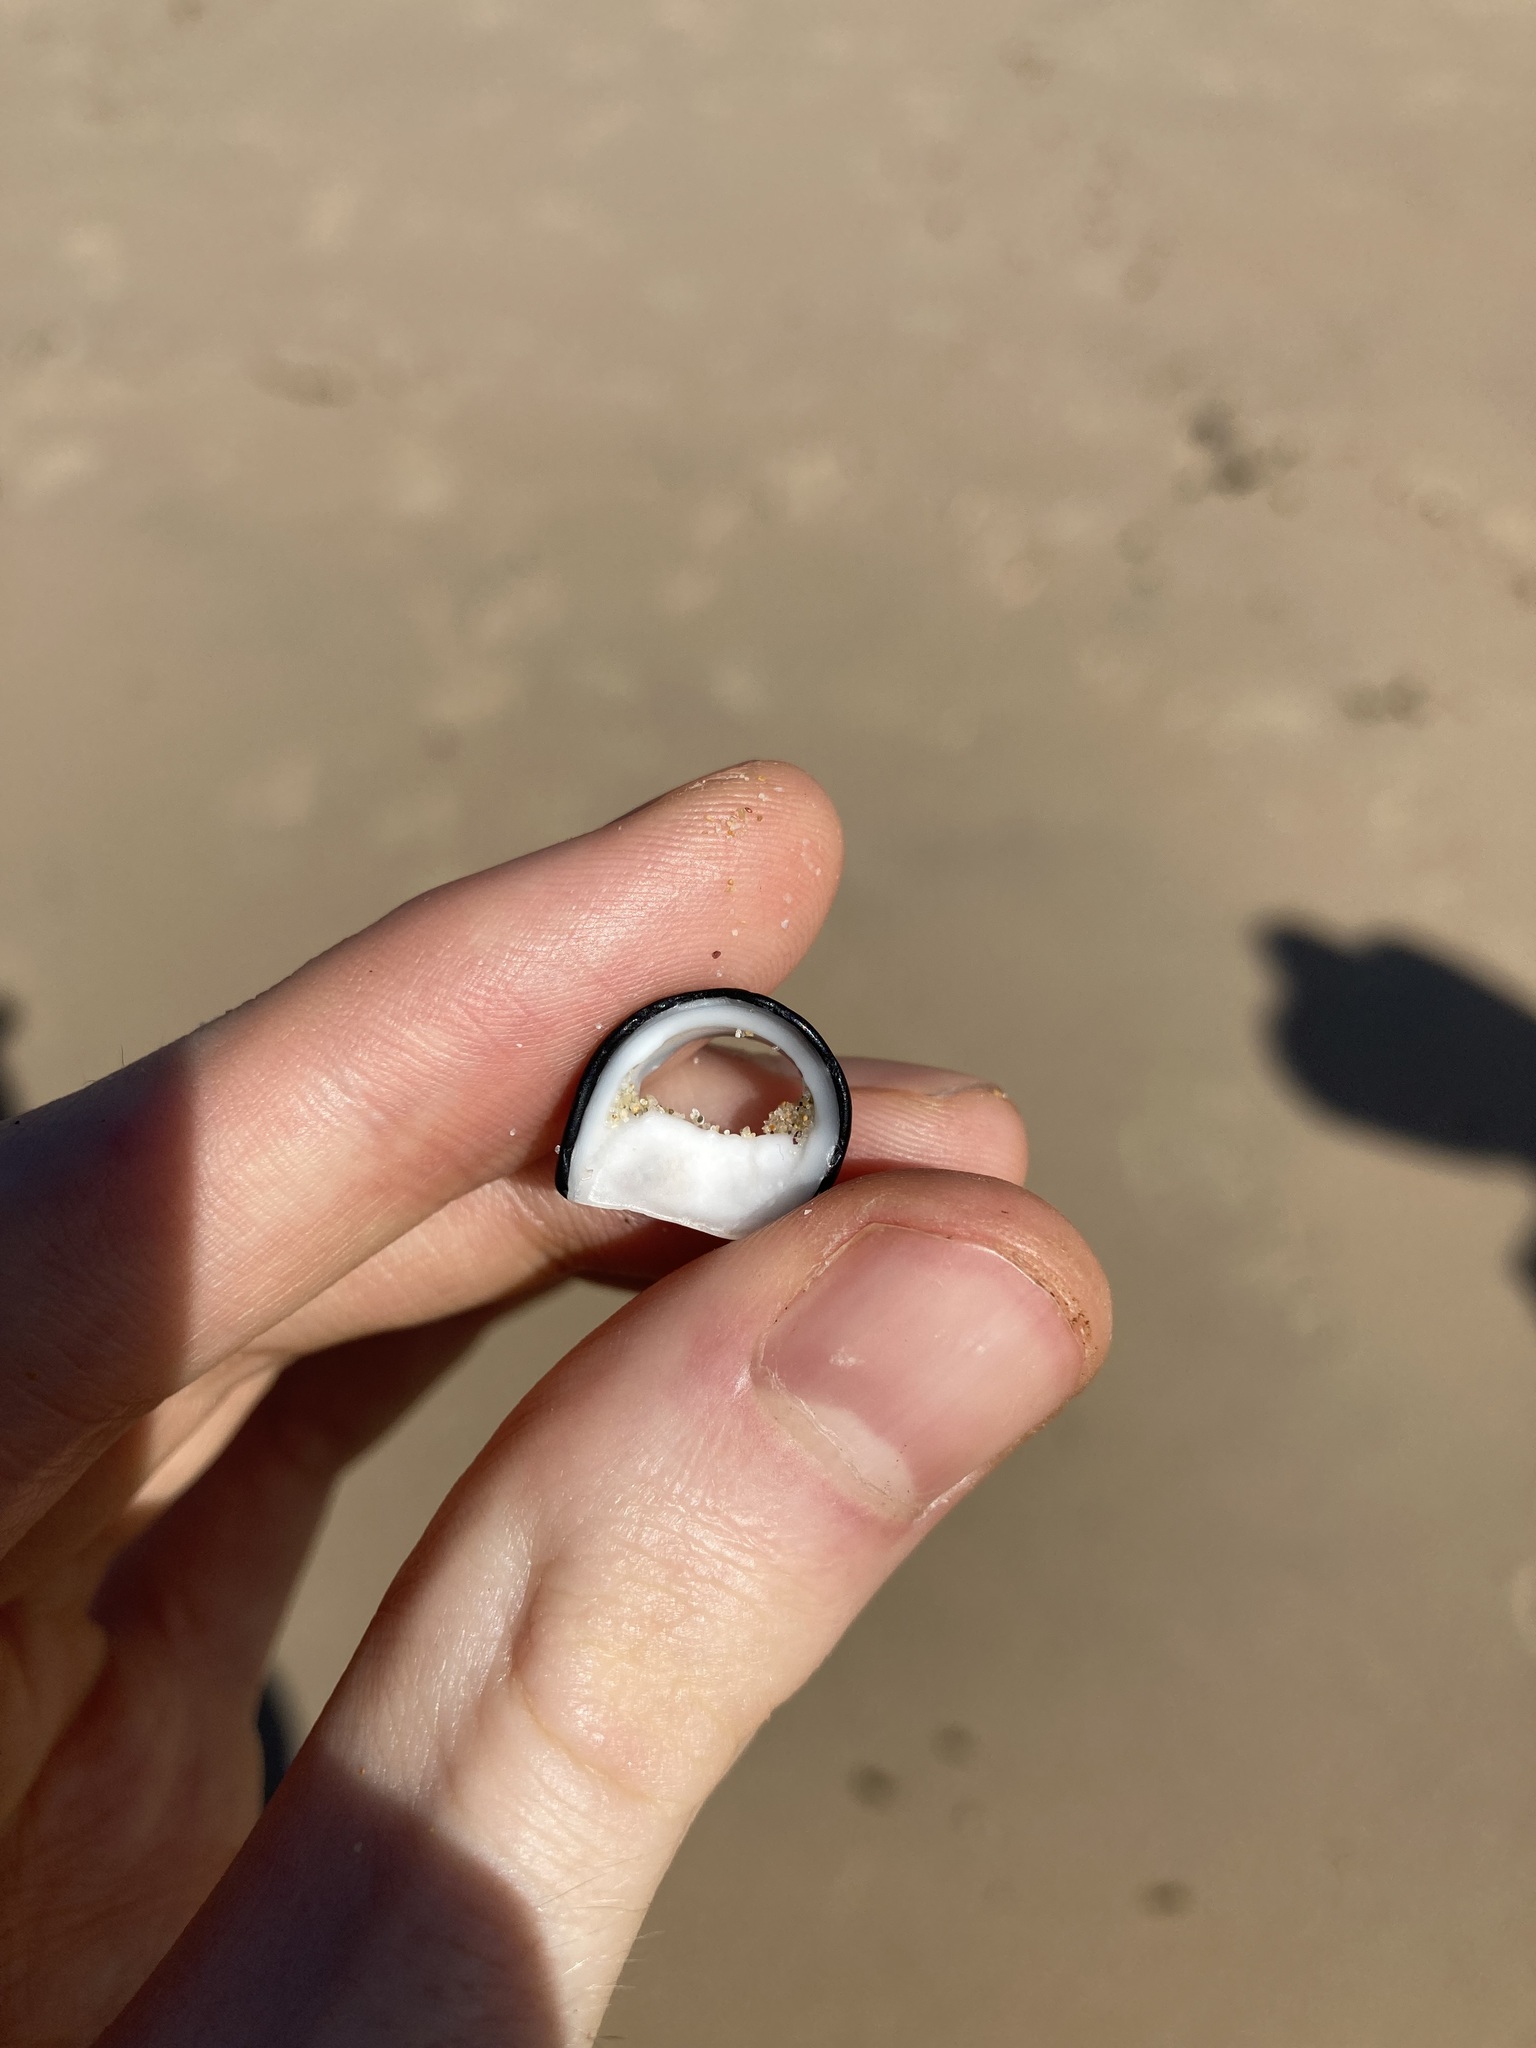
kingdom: Animalia
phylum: Mollusca
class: Gastropoda
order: Cycloneritida
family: Neritidae
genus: Nerita
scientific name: Nerita melanotragus
